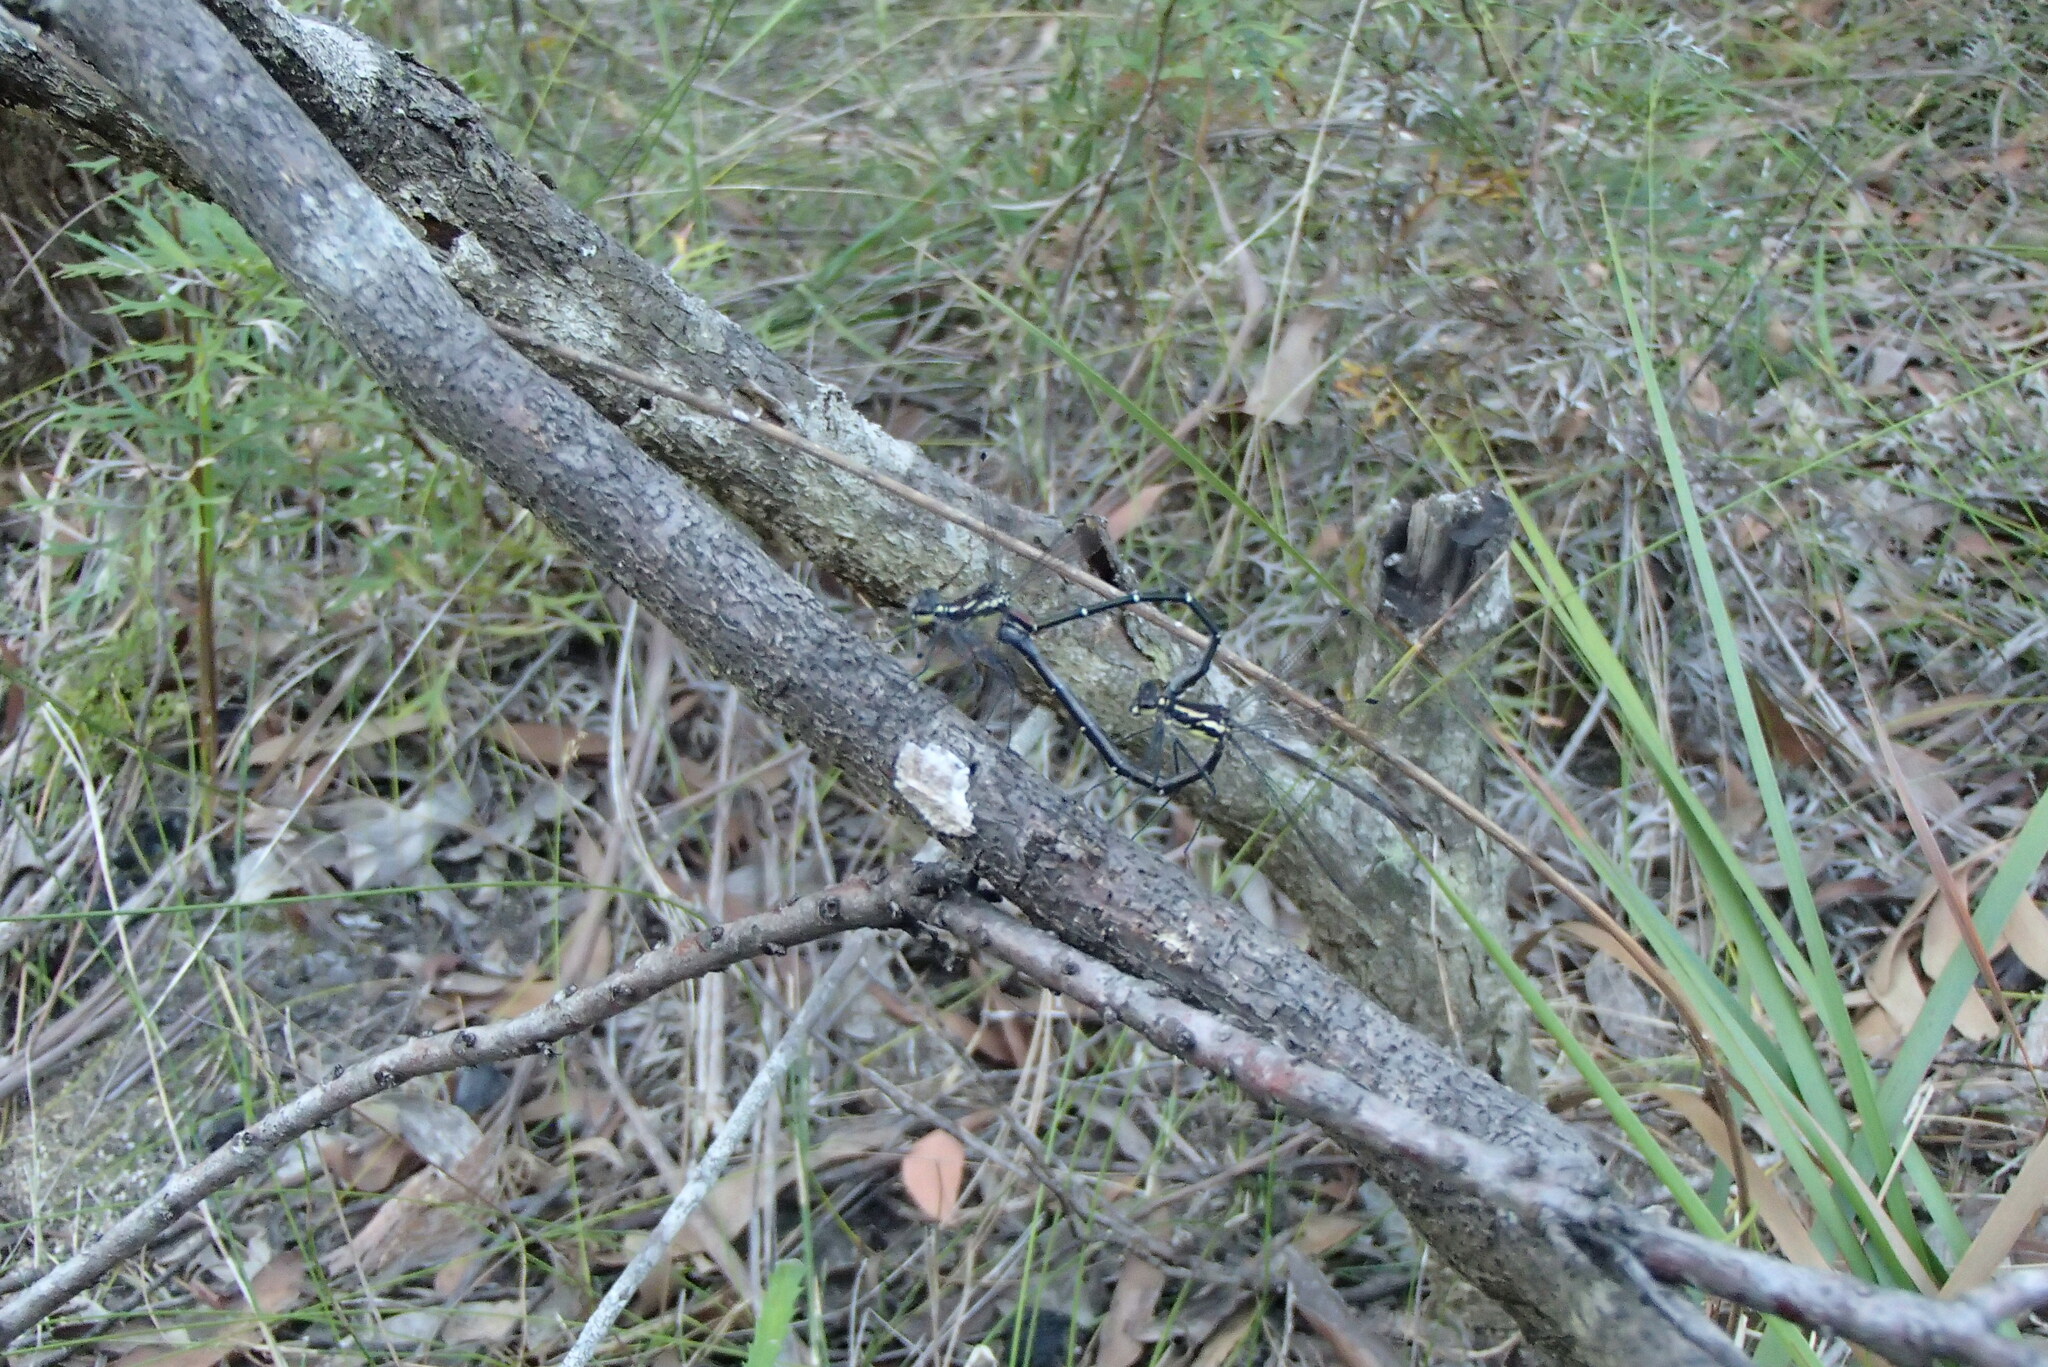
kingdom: Animalia
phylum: Arthropoda
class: Insecta
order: Odonata
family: Argiolestidae
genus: Austroargiolestes
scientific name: Austroargiolestes isabellae
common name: Sydney flatwing
